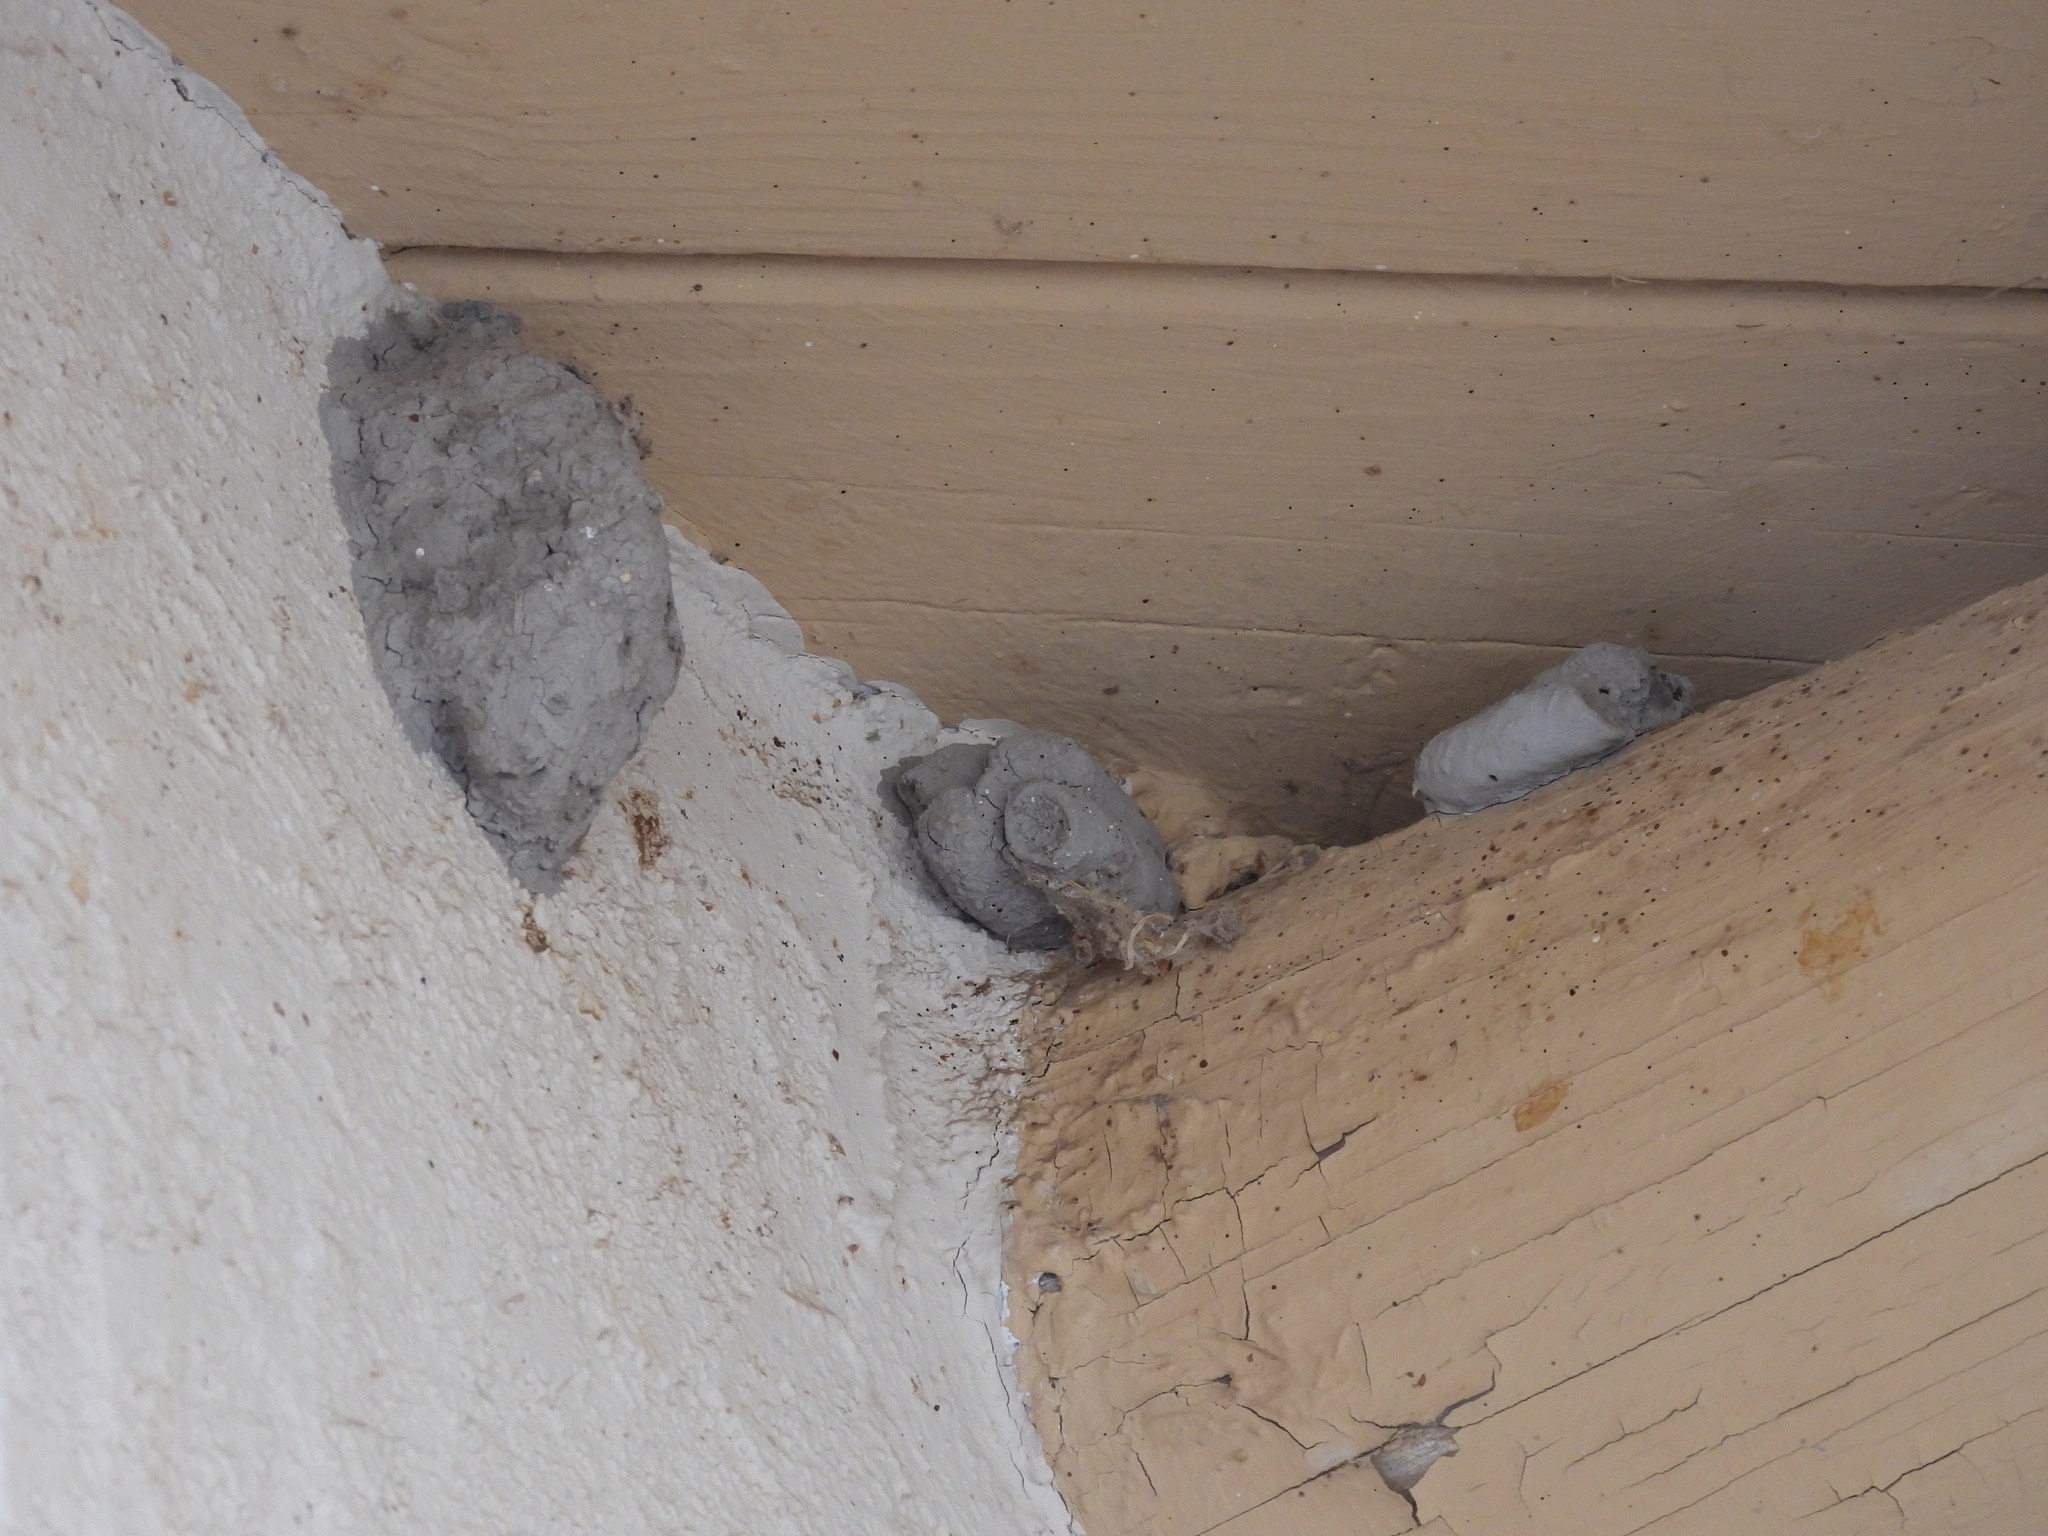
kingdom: Animalia
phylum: Arthropoda
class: Insecta
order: Hymenoptera
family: Sphecidae
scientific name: Sphecidae
